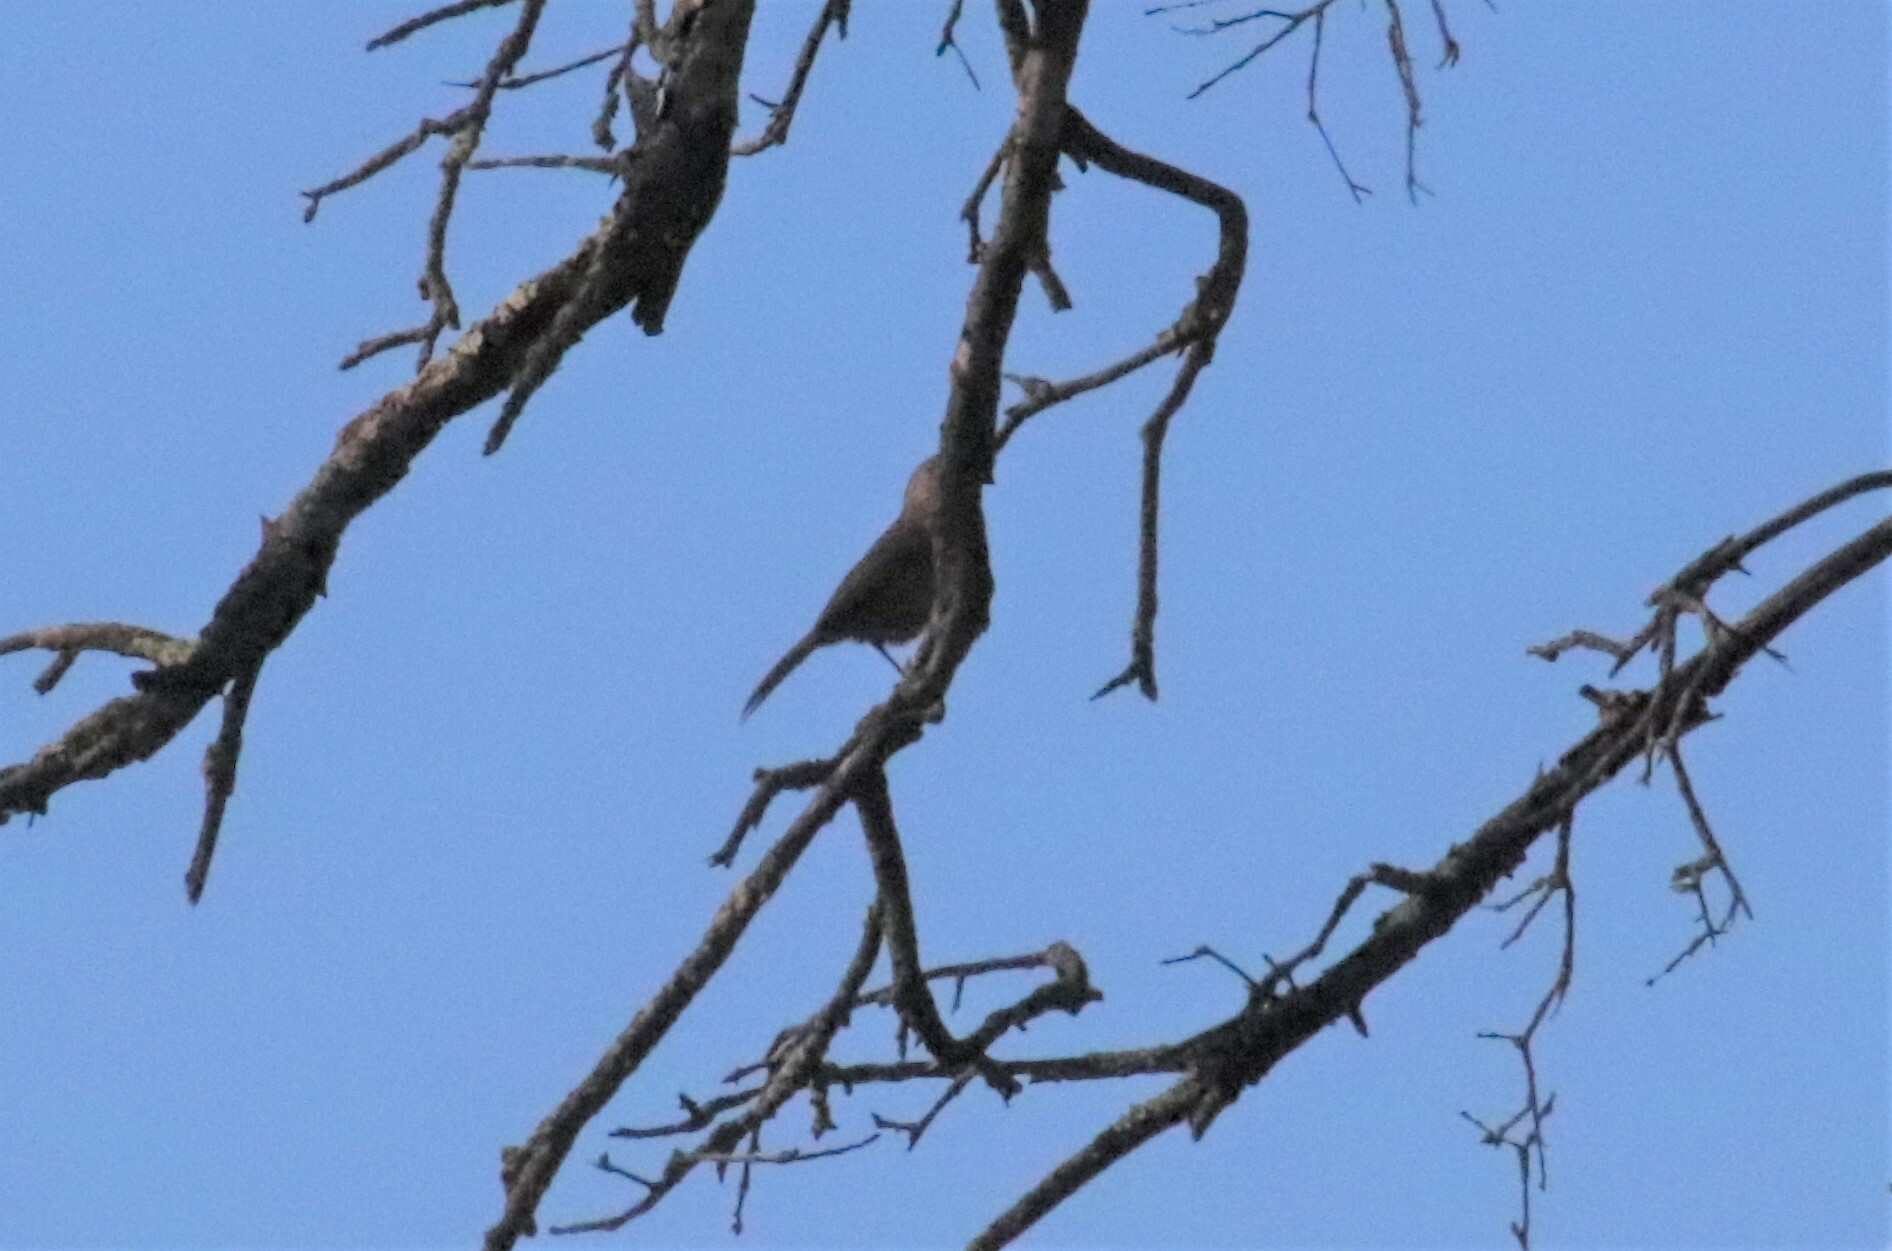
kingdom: Animalia
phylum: Chordata
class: Aves
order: Passeriformes
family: Paridae
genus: Baeolophus
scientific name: Baeolophus inornatus
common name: Oak titmouse
